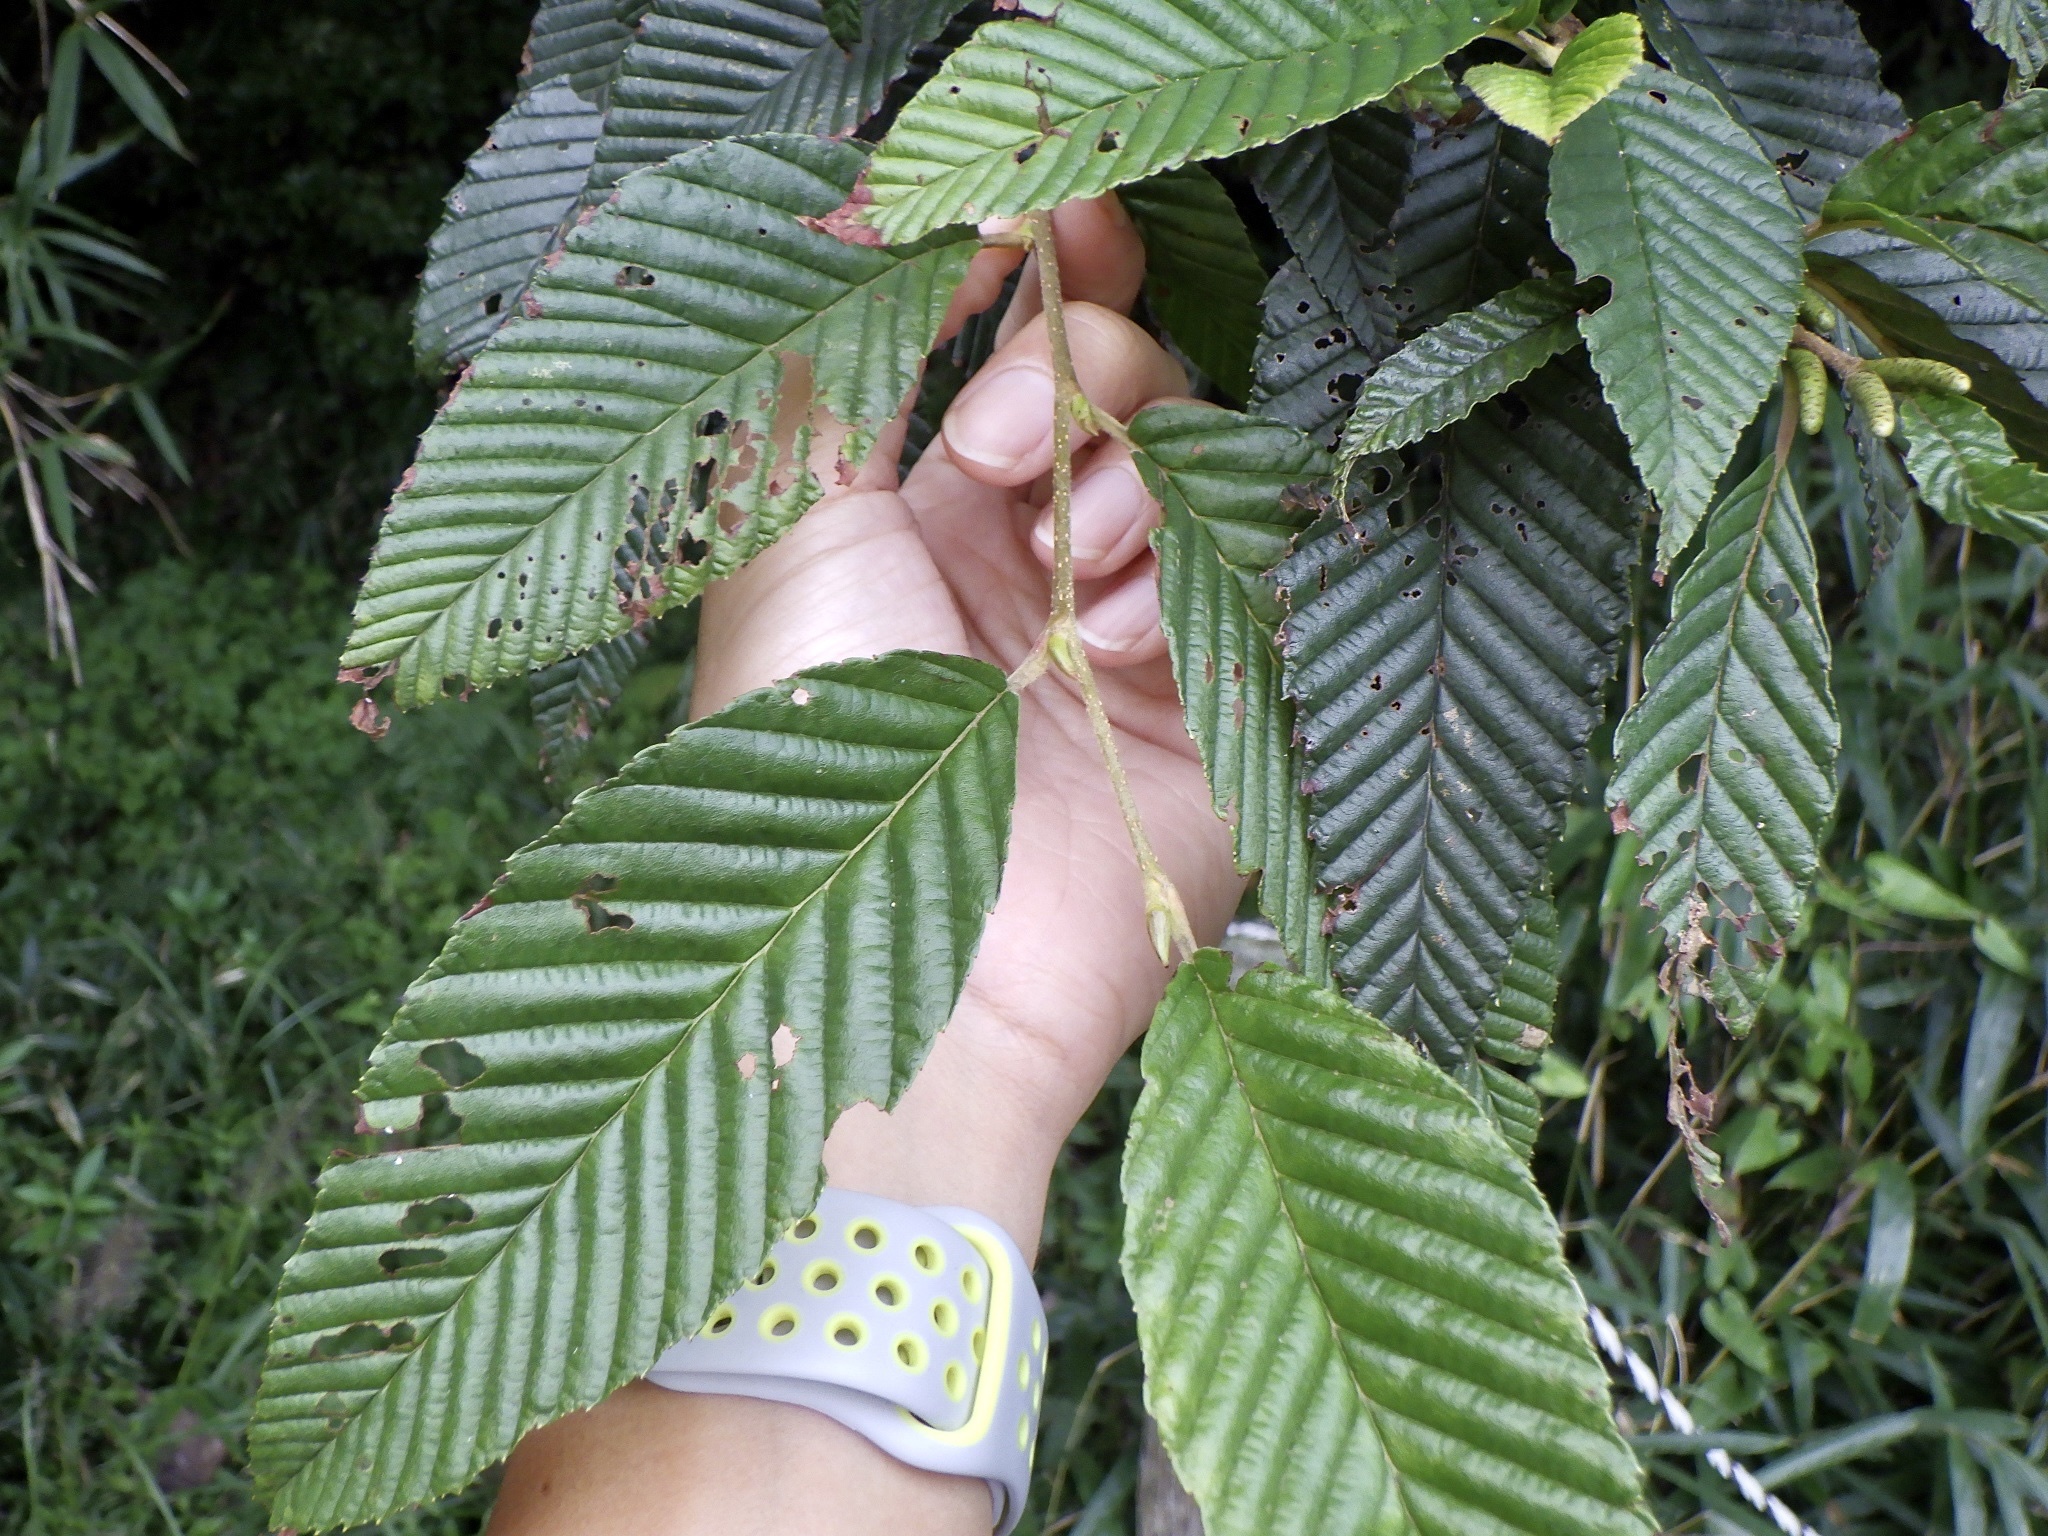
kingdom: Plantae
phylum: Tracheophyta
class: Magnoliopsida
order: Fagales
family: Betulaceae
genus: Alnus
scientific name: Alnus pendula
